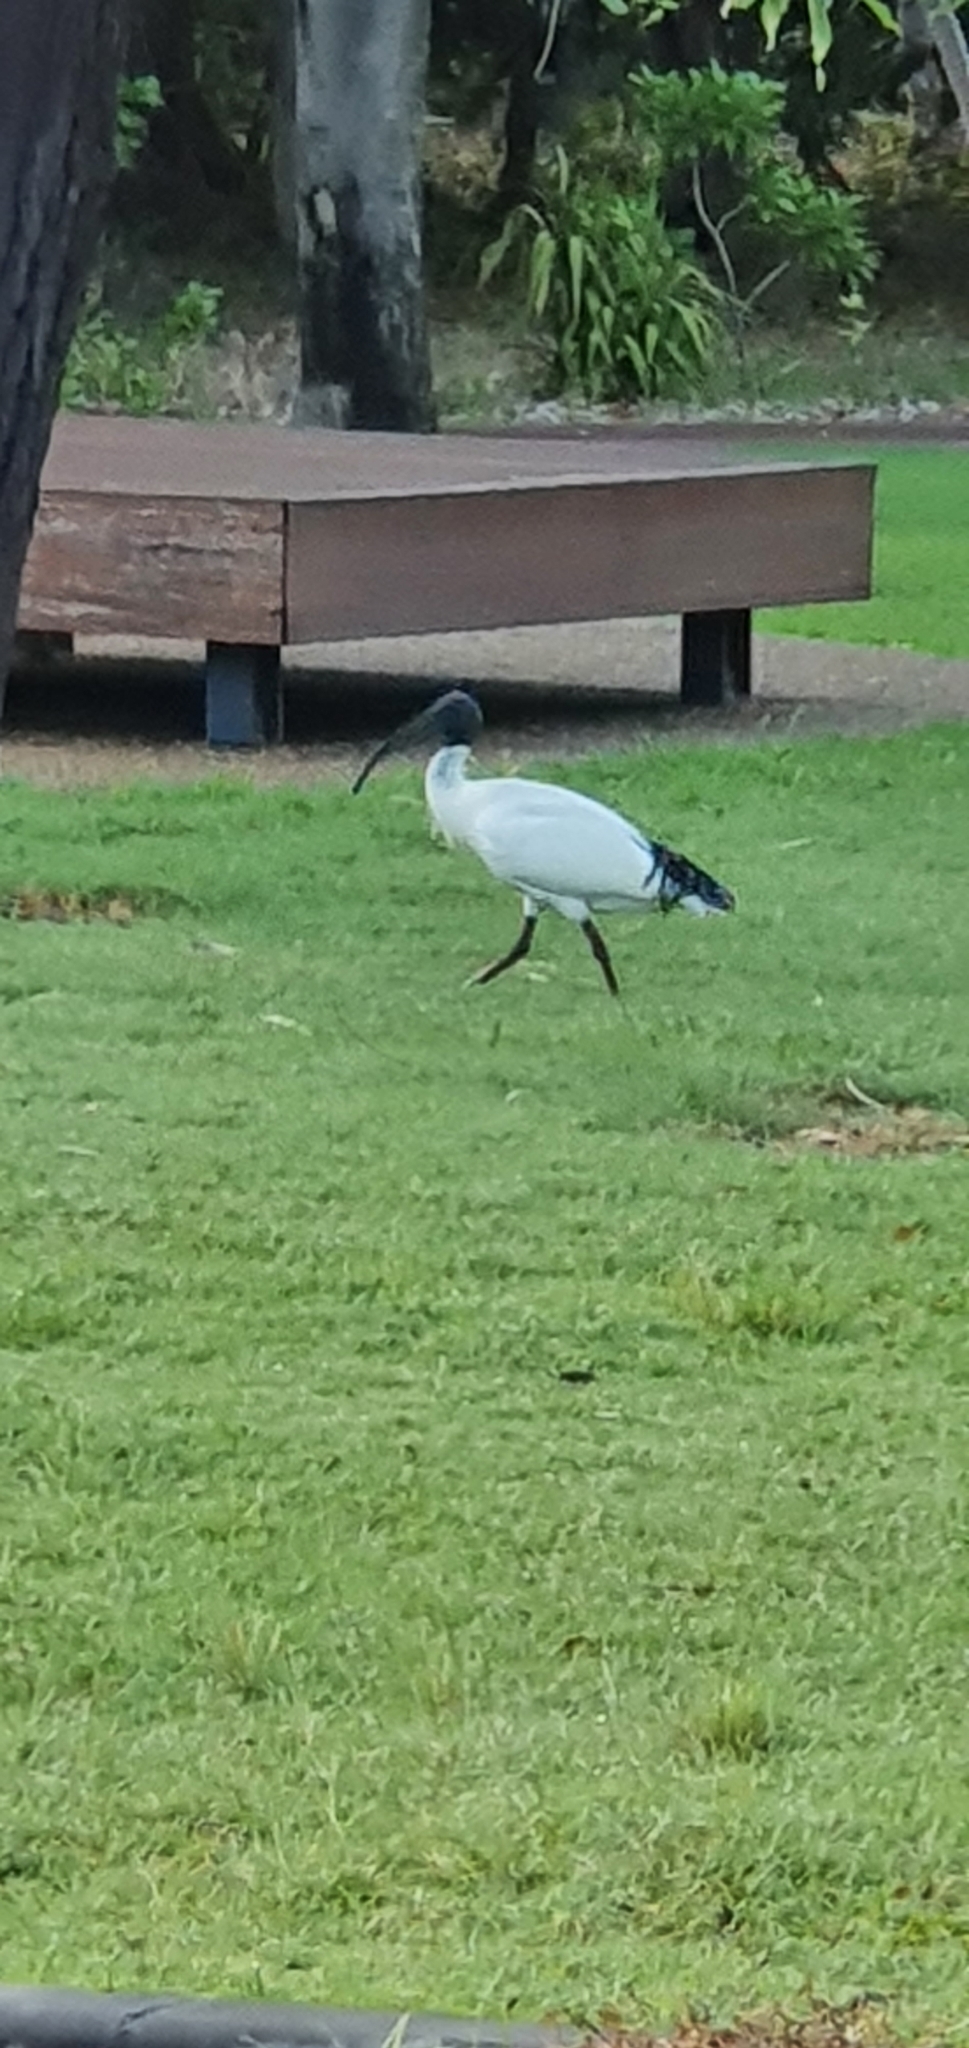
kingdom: Animalia
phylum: Chordata
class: Aves
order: Pelecaniformes
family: Threskiornithidae
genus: Threskiornis
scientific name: Threskiornis molucca
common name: Australian white ibis
